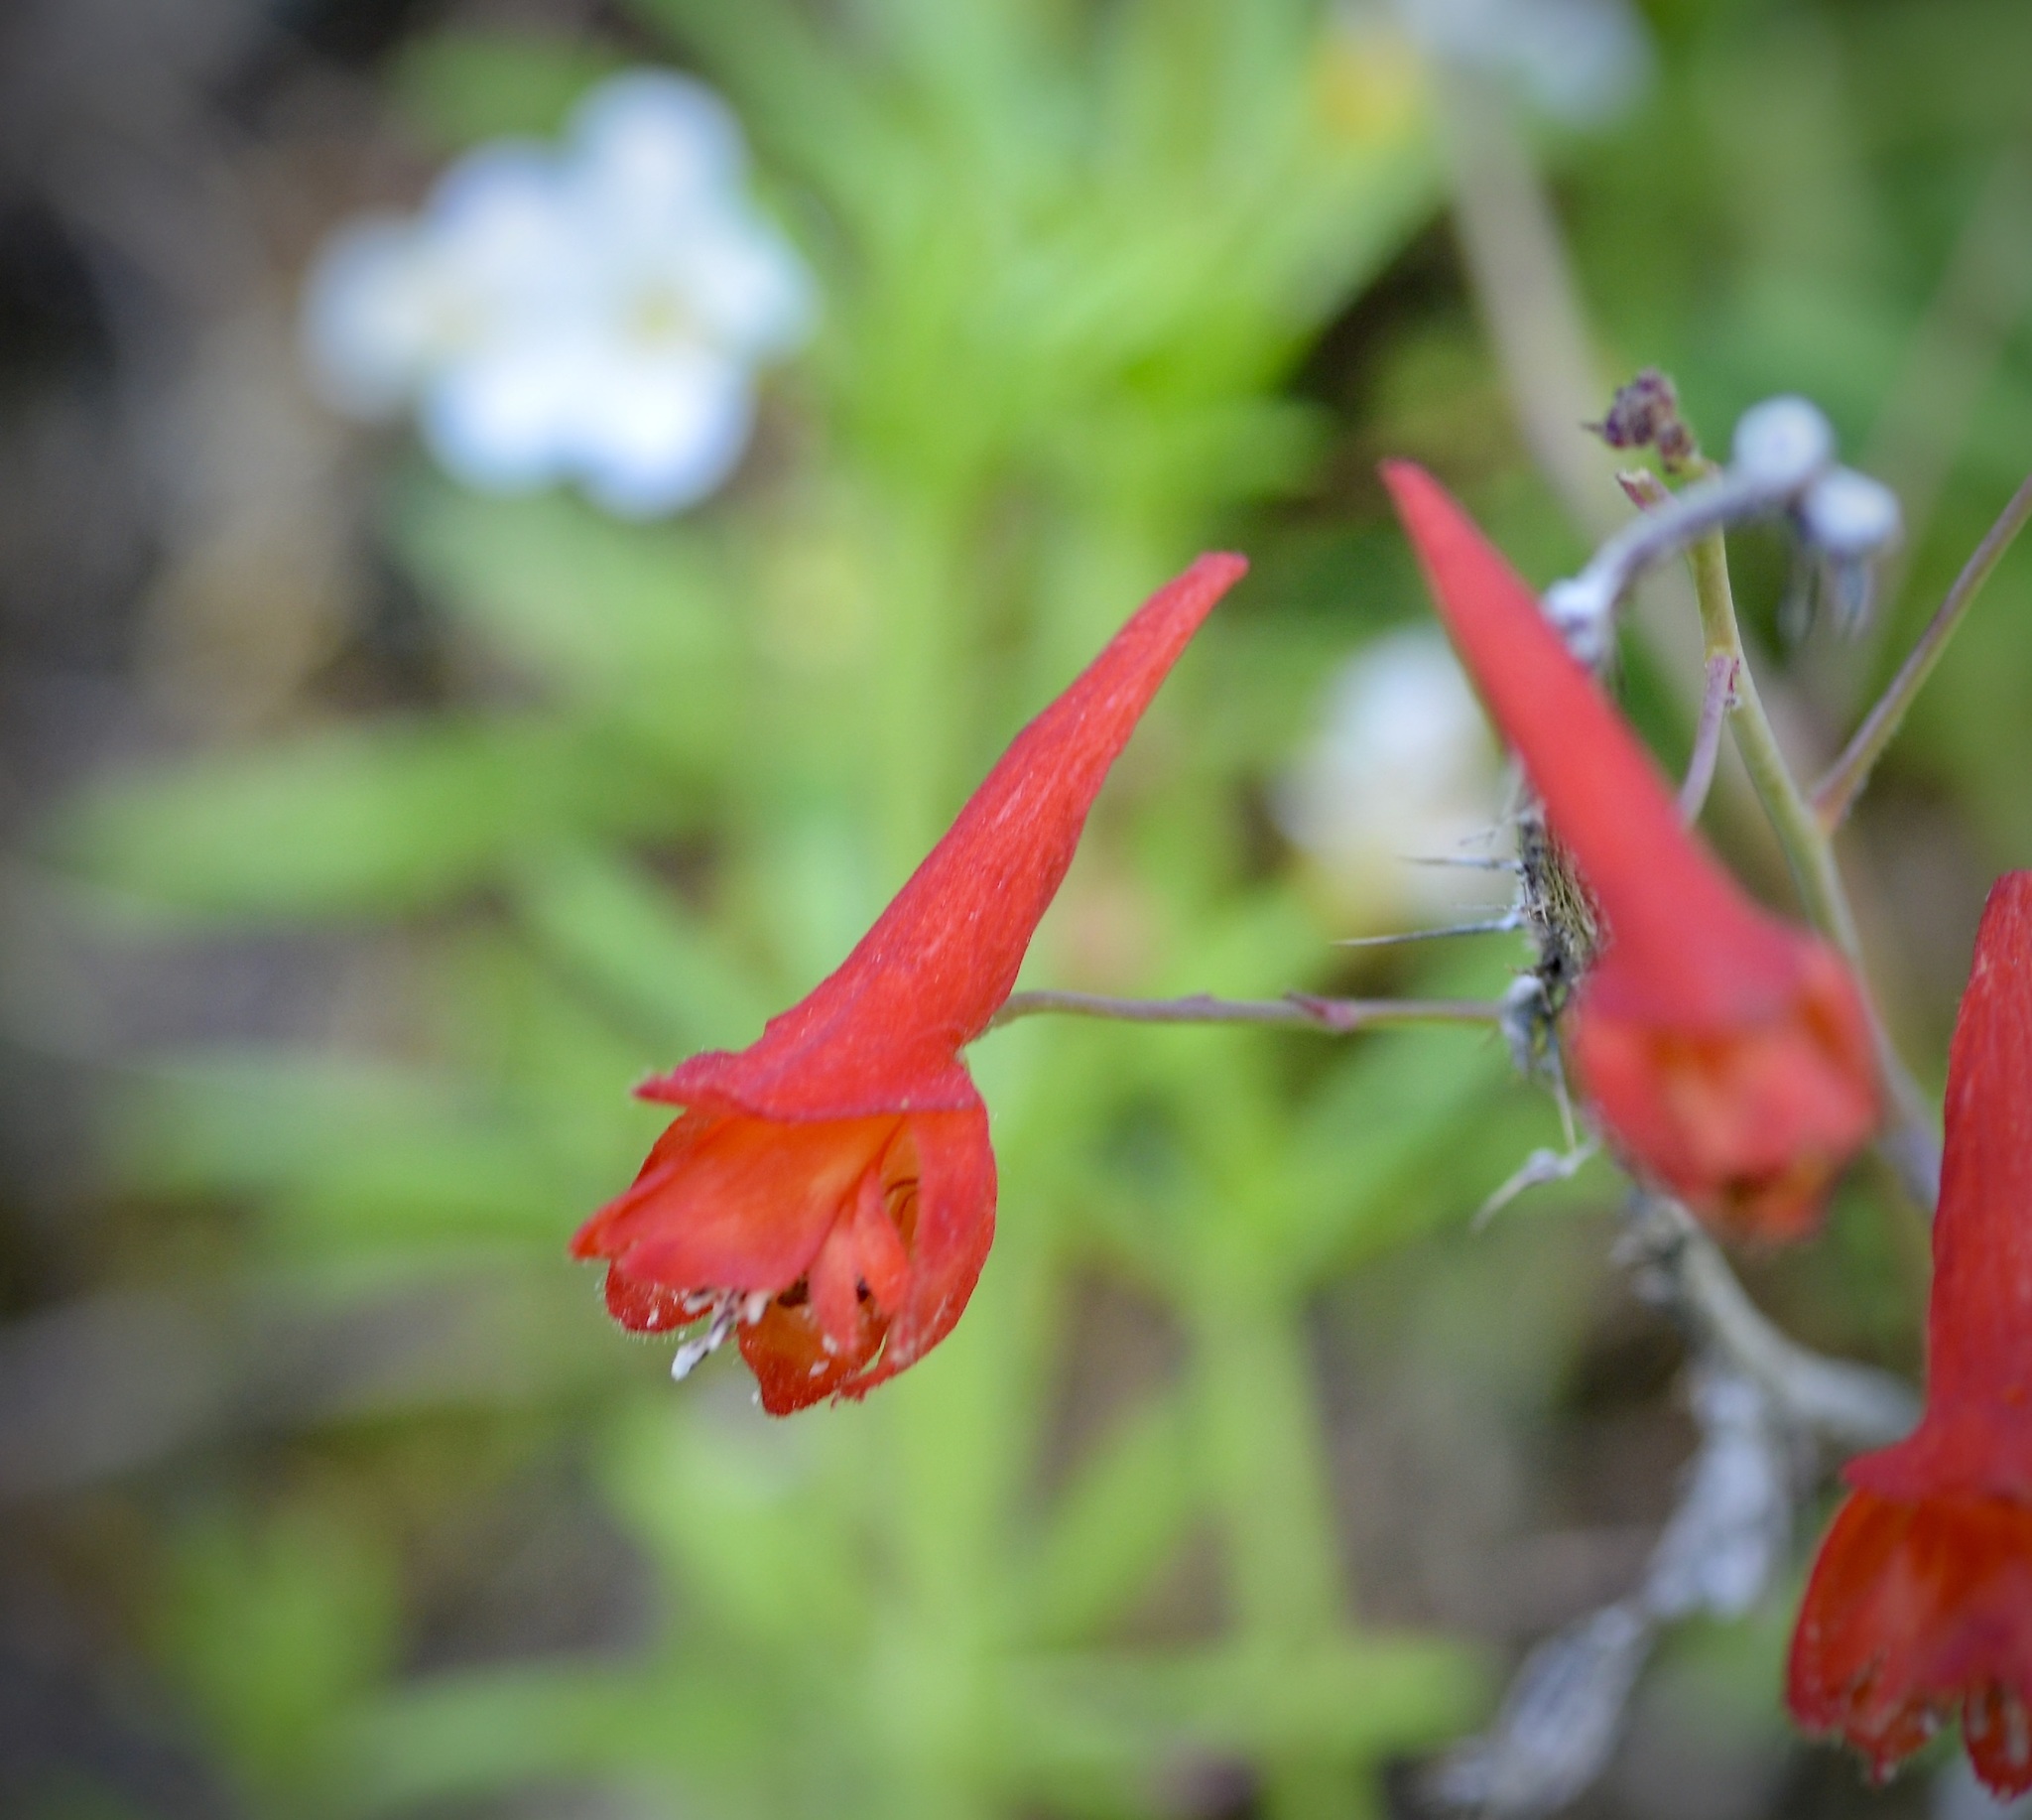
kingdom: Plantae
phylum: Tracheophyta
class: Magnoliopsida
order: Ranunculales
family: Ranunculaceae
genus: Delphinium
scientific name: Delphinium nudicaule
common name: Red larkspur
